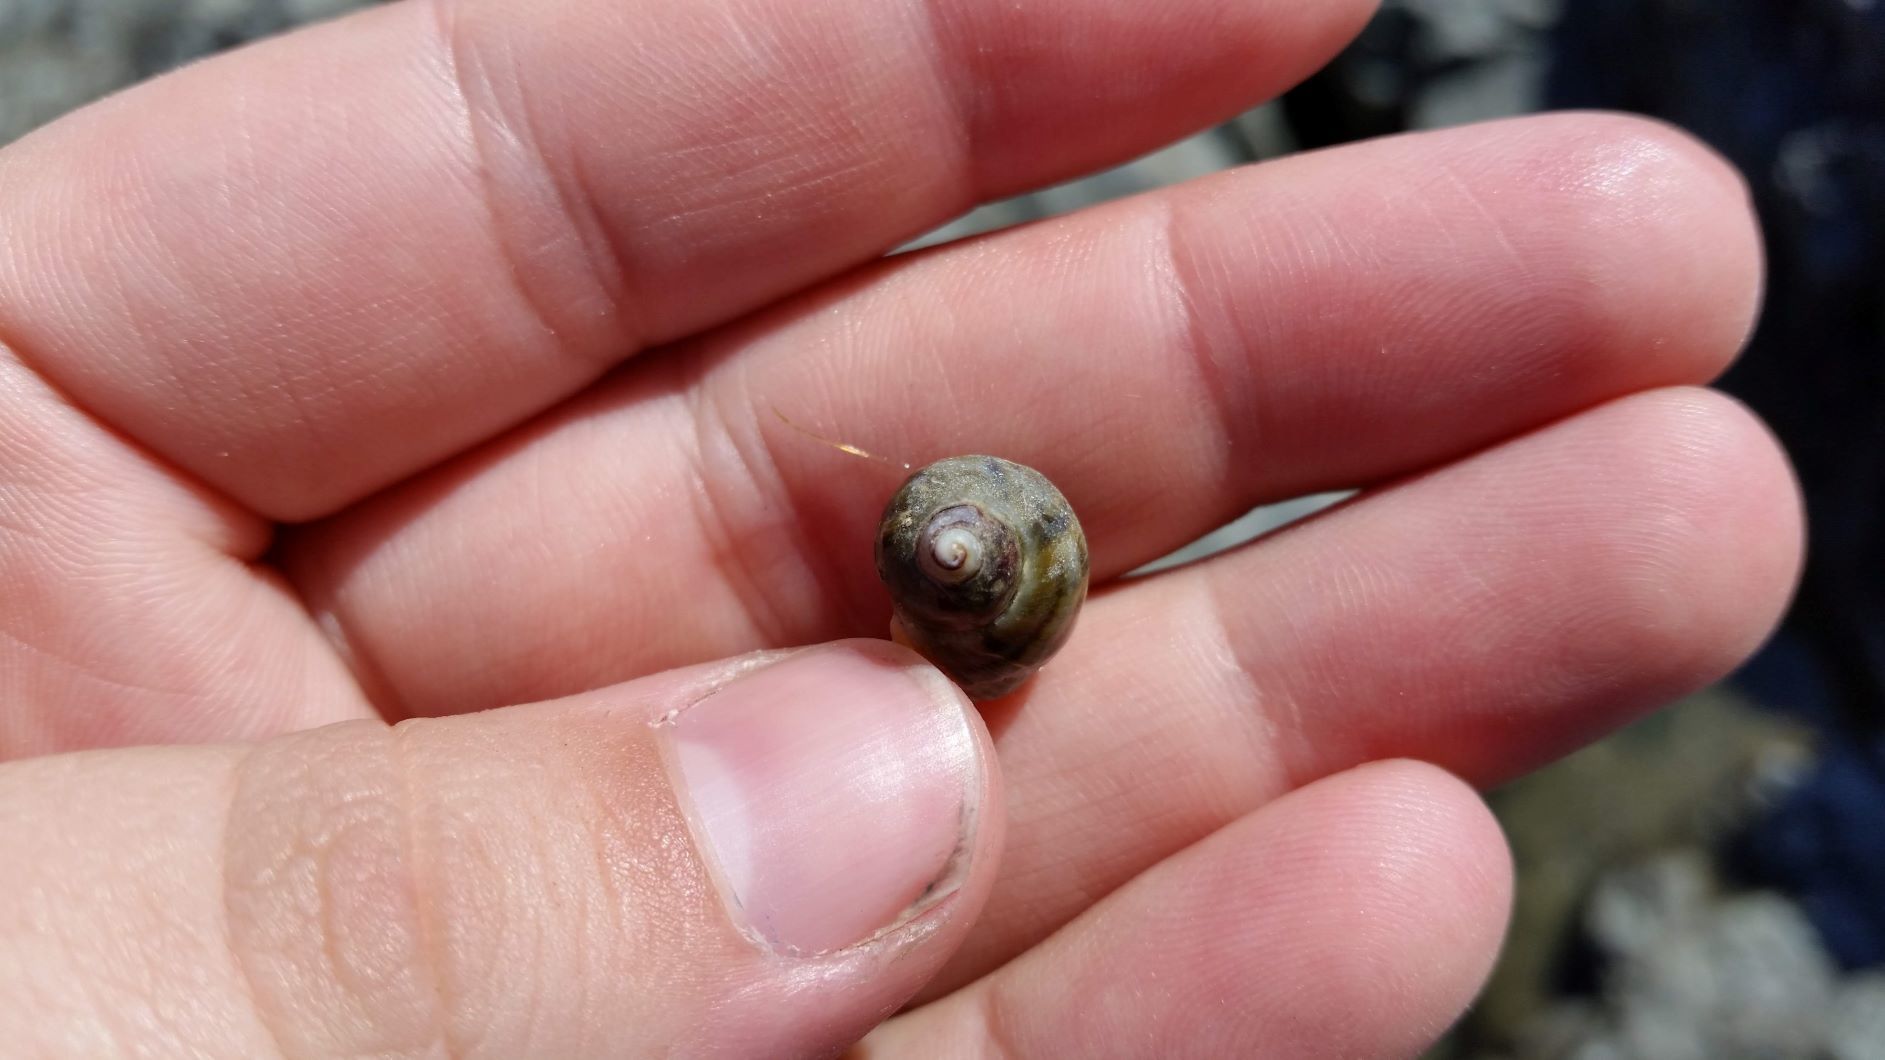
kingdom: Animalia
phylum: Mollusca
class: Gastropoda
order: Neogastropoda
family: Muricidae
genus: Nucella
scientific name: Nucella ostrina
